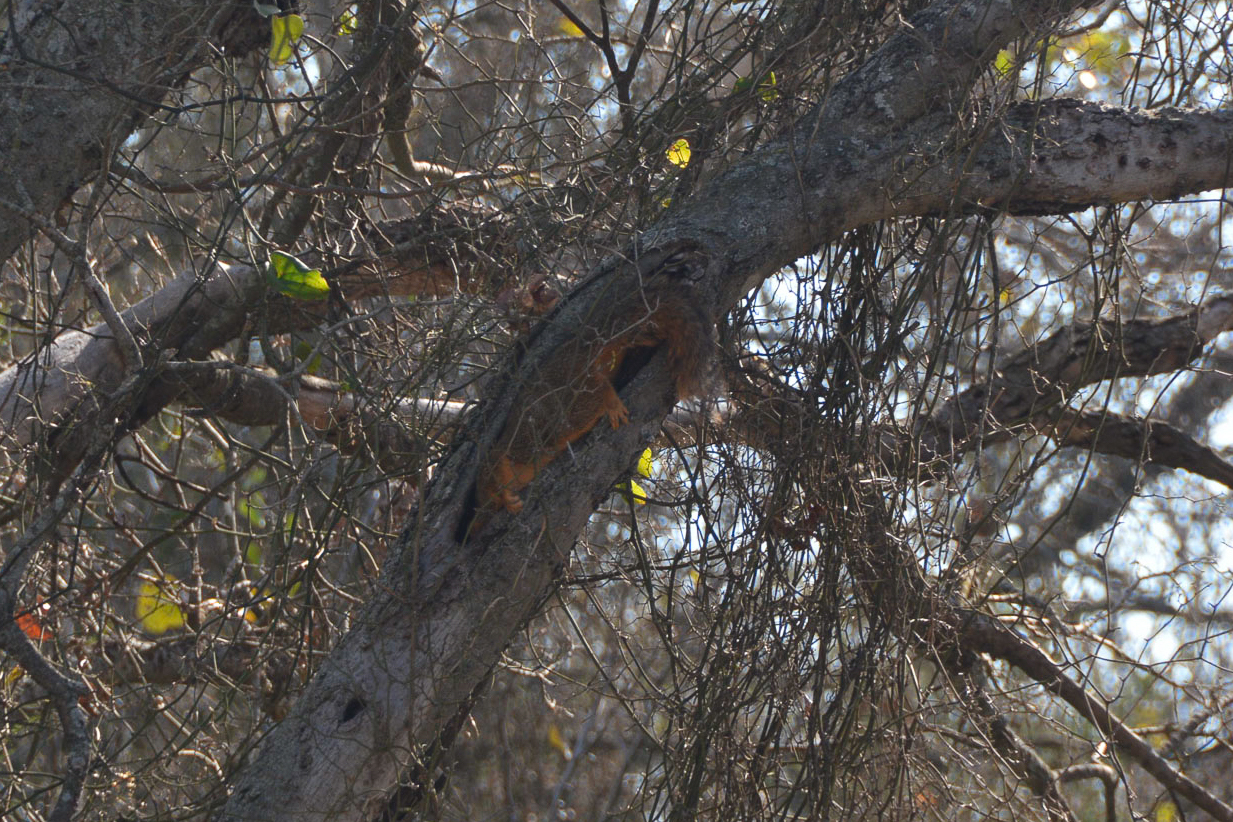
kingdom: Animalia
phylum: Chordata
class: Mammalia
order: Rodentia
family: Sciuridae
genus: Sciurus
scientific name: Sciurus niger
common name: Fox squirrel
